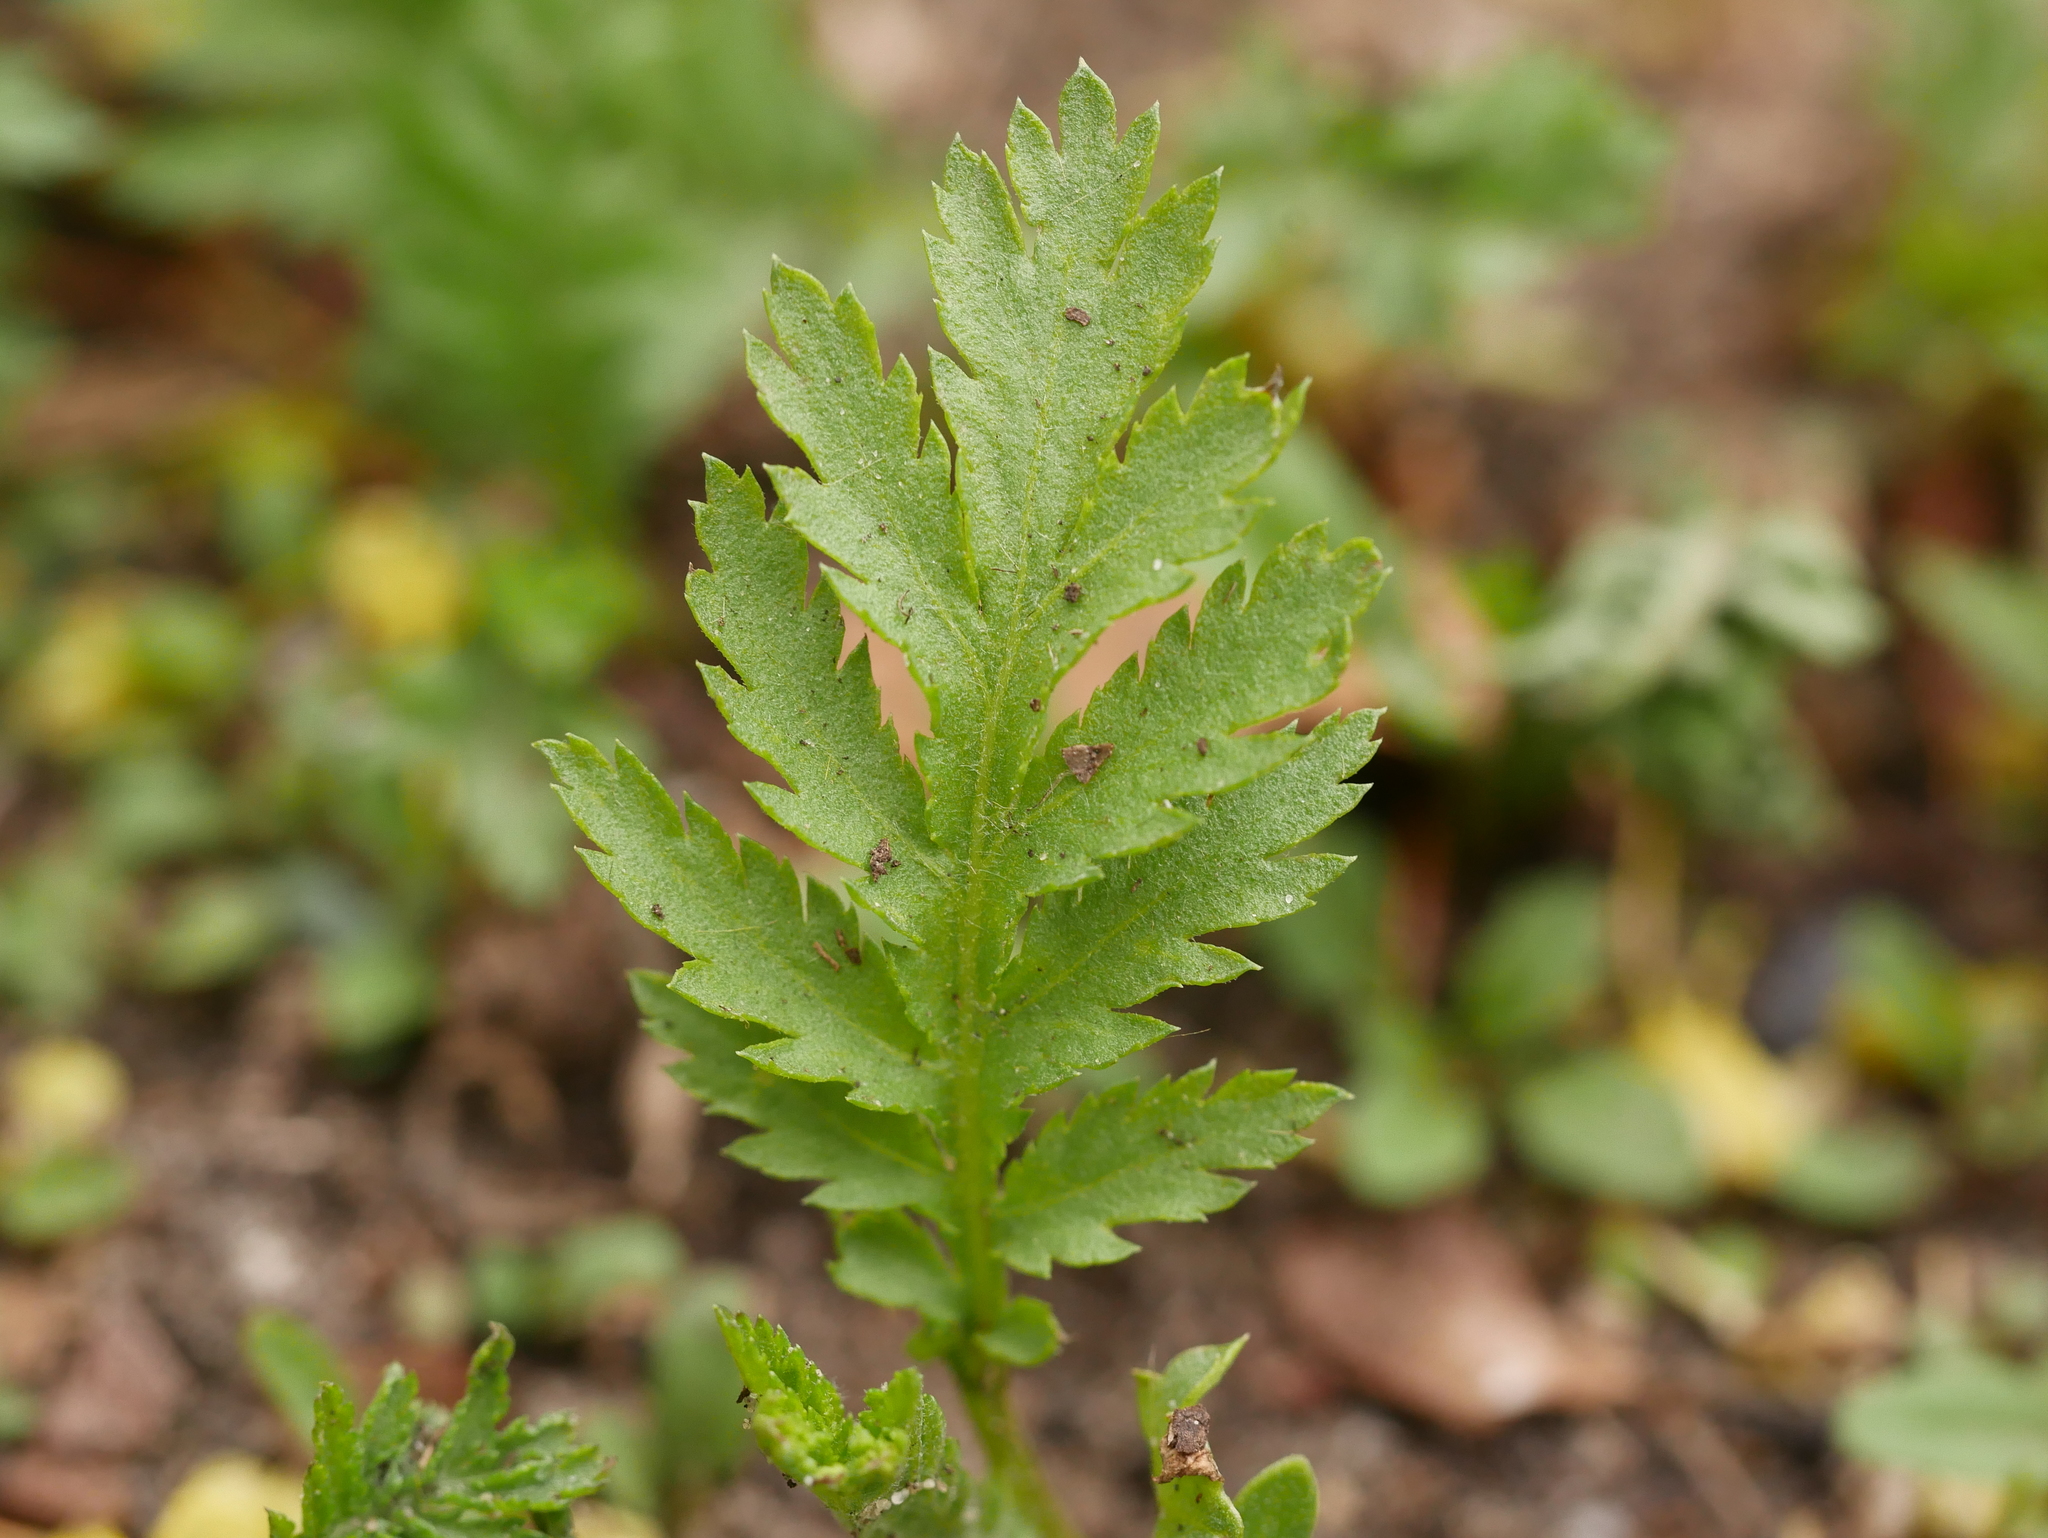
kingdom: Plantae
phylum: Tracheophyta
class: Magnoliopsida
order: Asterales
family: Asteraceae
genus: Tanacetum
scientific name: Tanacetum vulgare
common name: Common tansy
